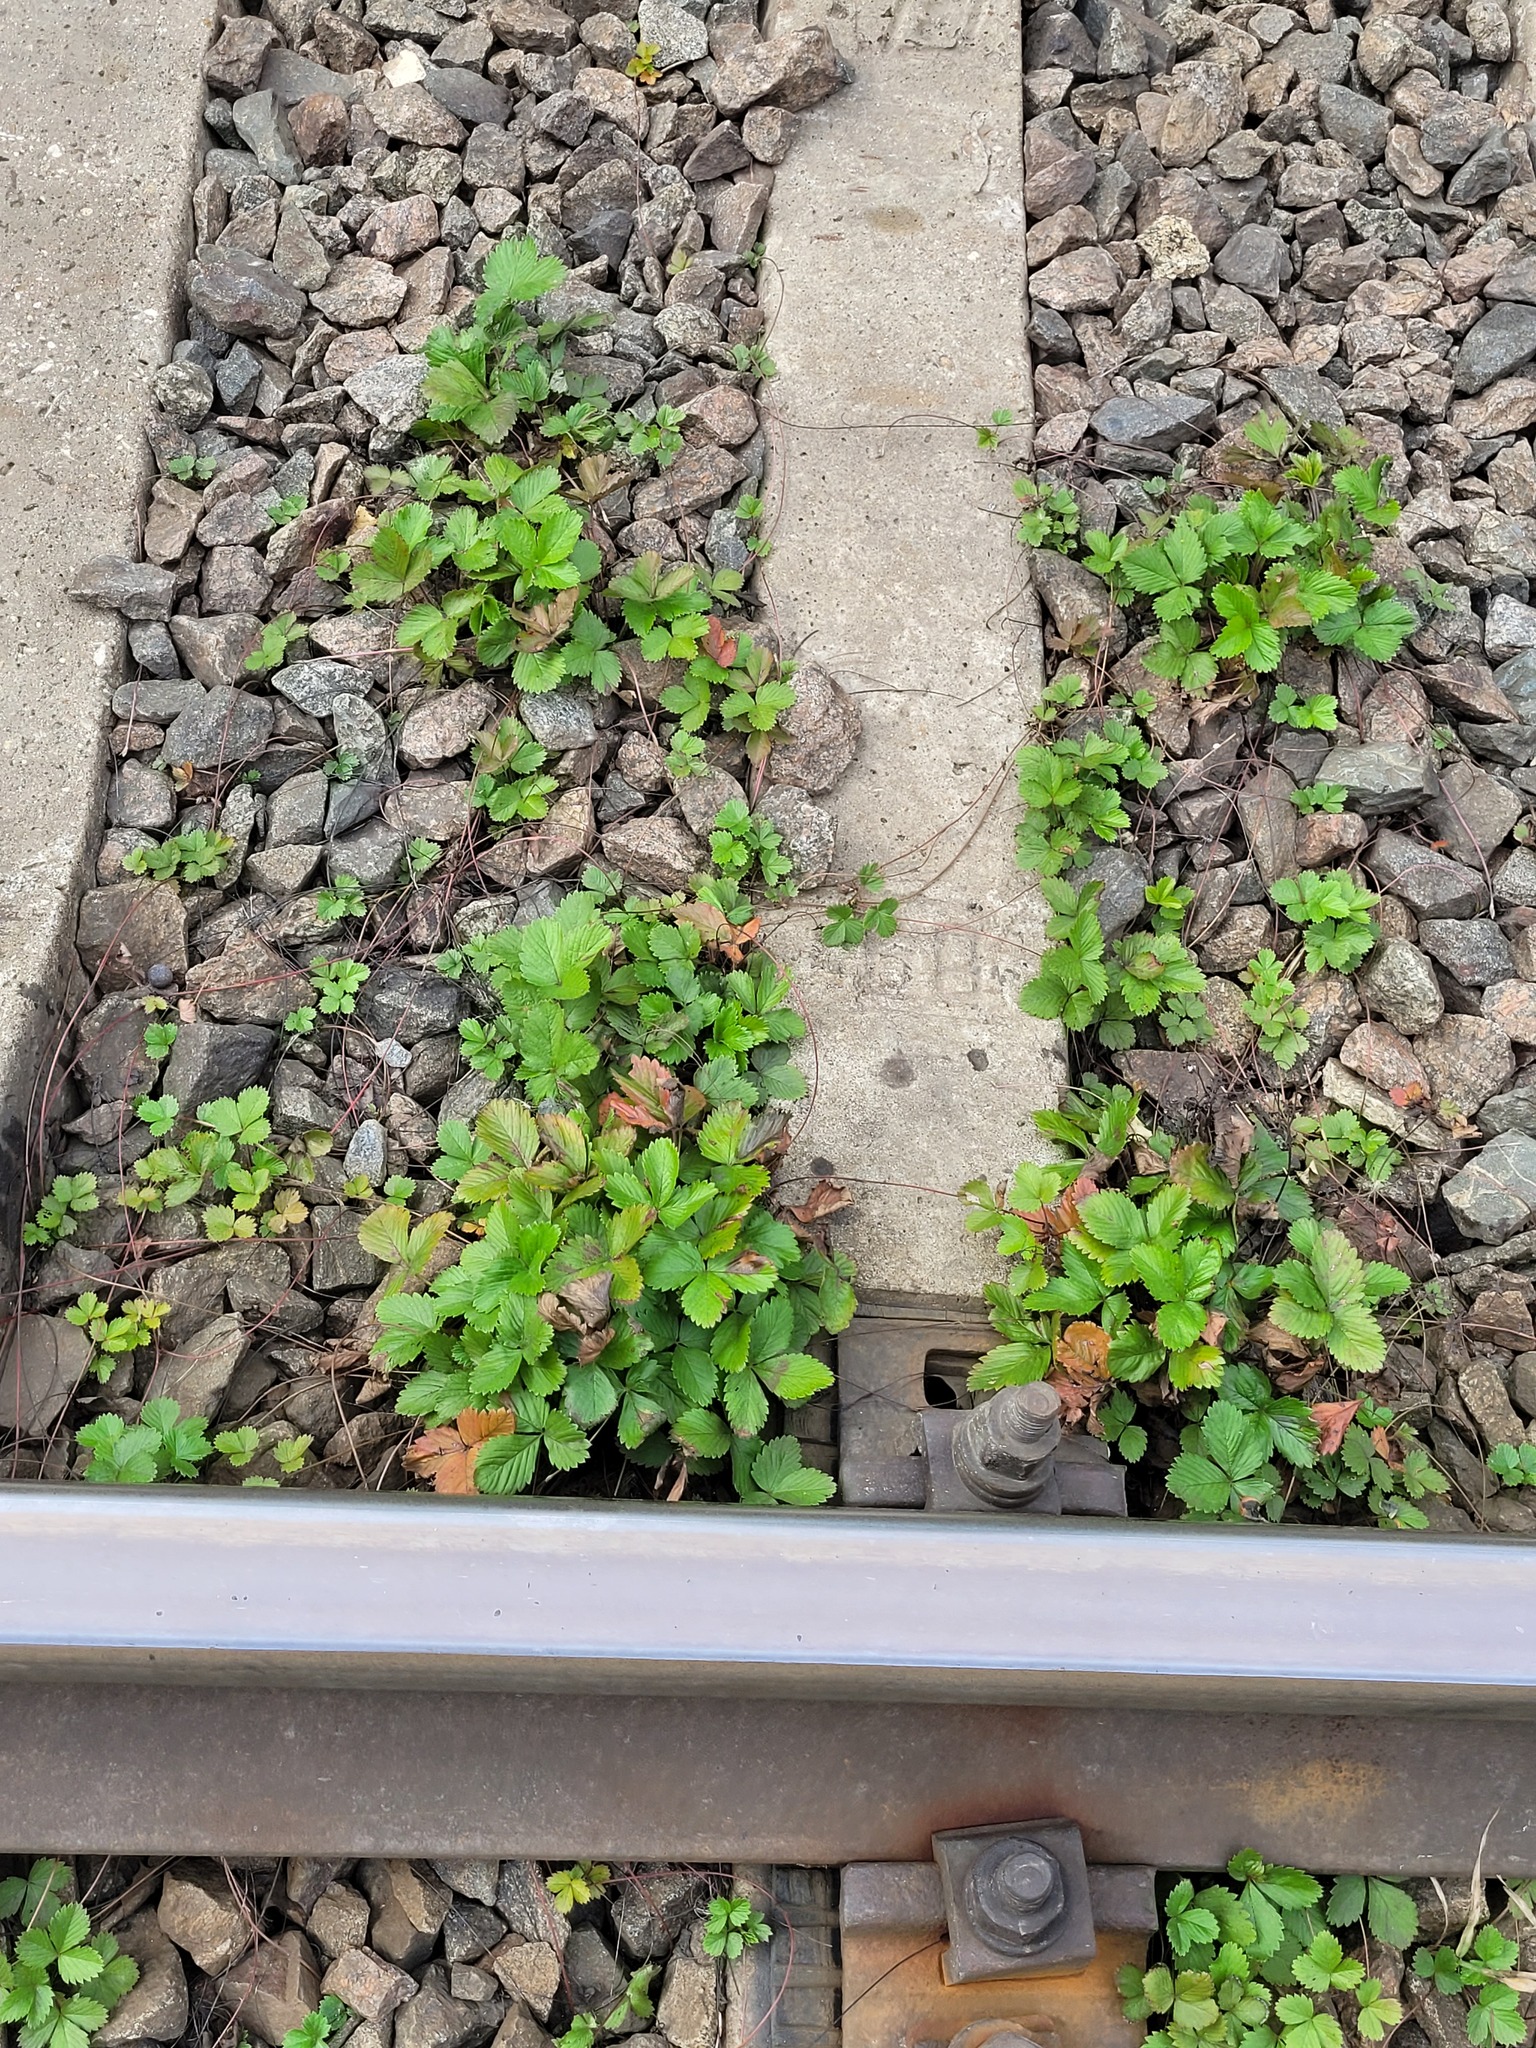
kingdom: Plantae
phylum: Tracheophyta
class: Magnoliopsida
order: Rosales
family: Rosaceae
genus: Fragaria
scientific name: Fragaria vesca
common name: Wild strawberry
